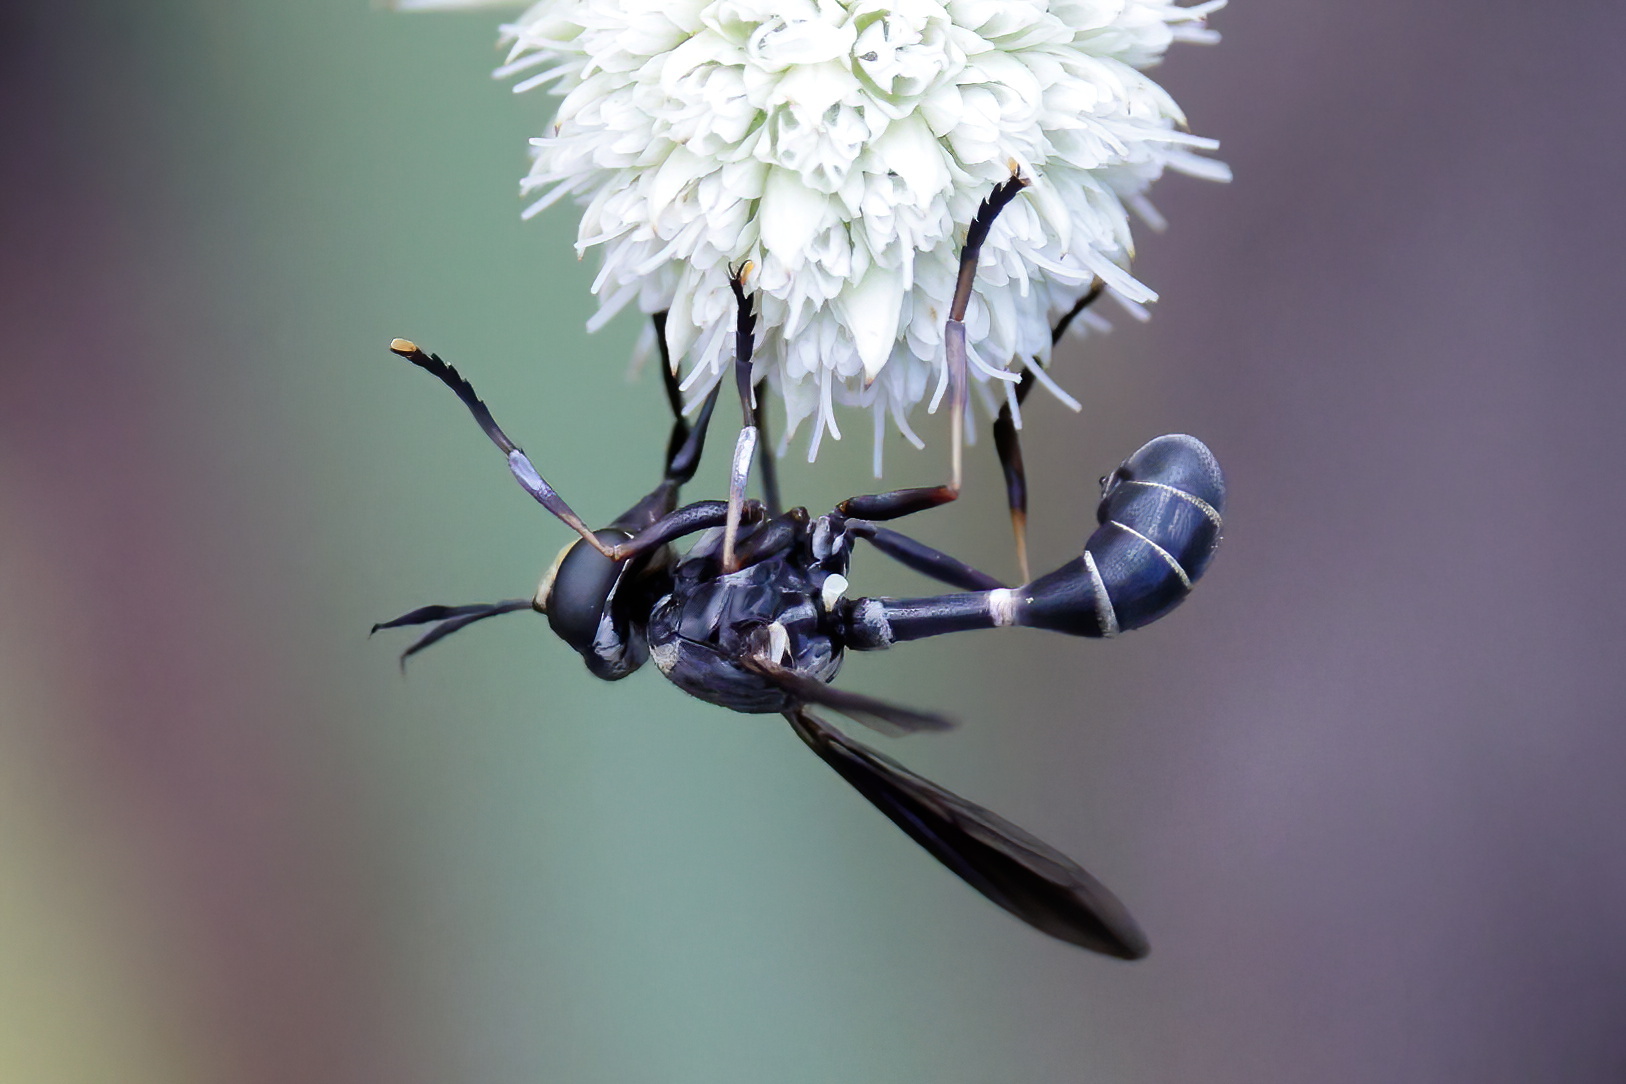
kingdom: Animalia
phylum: Arthropoda
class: Insecta
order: Diptera
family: Conopidae
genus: Physoconops
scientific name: Physoconops bulbirostris
